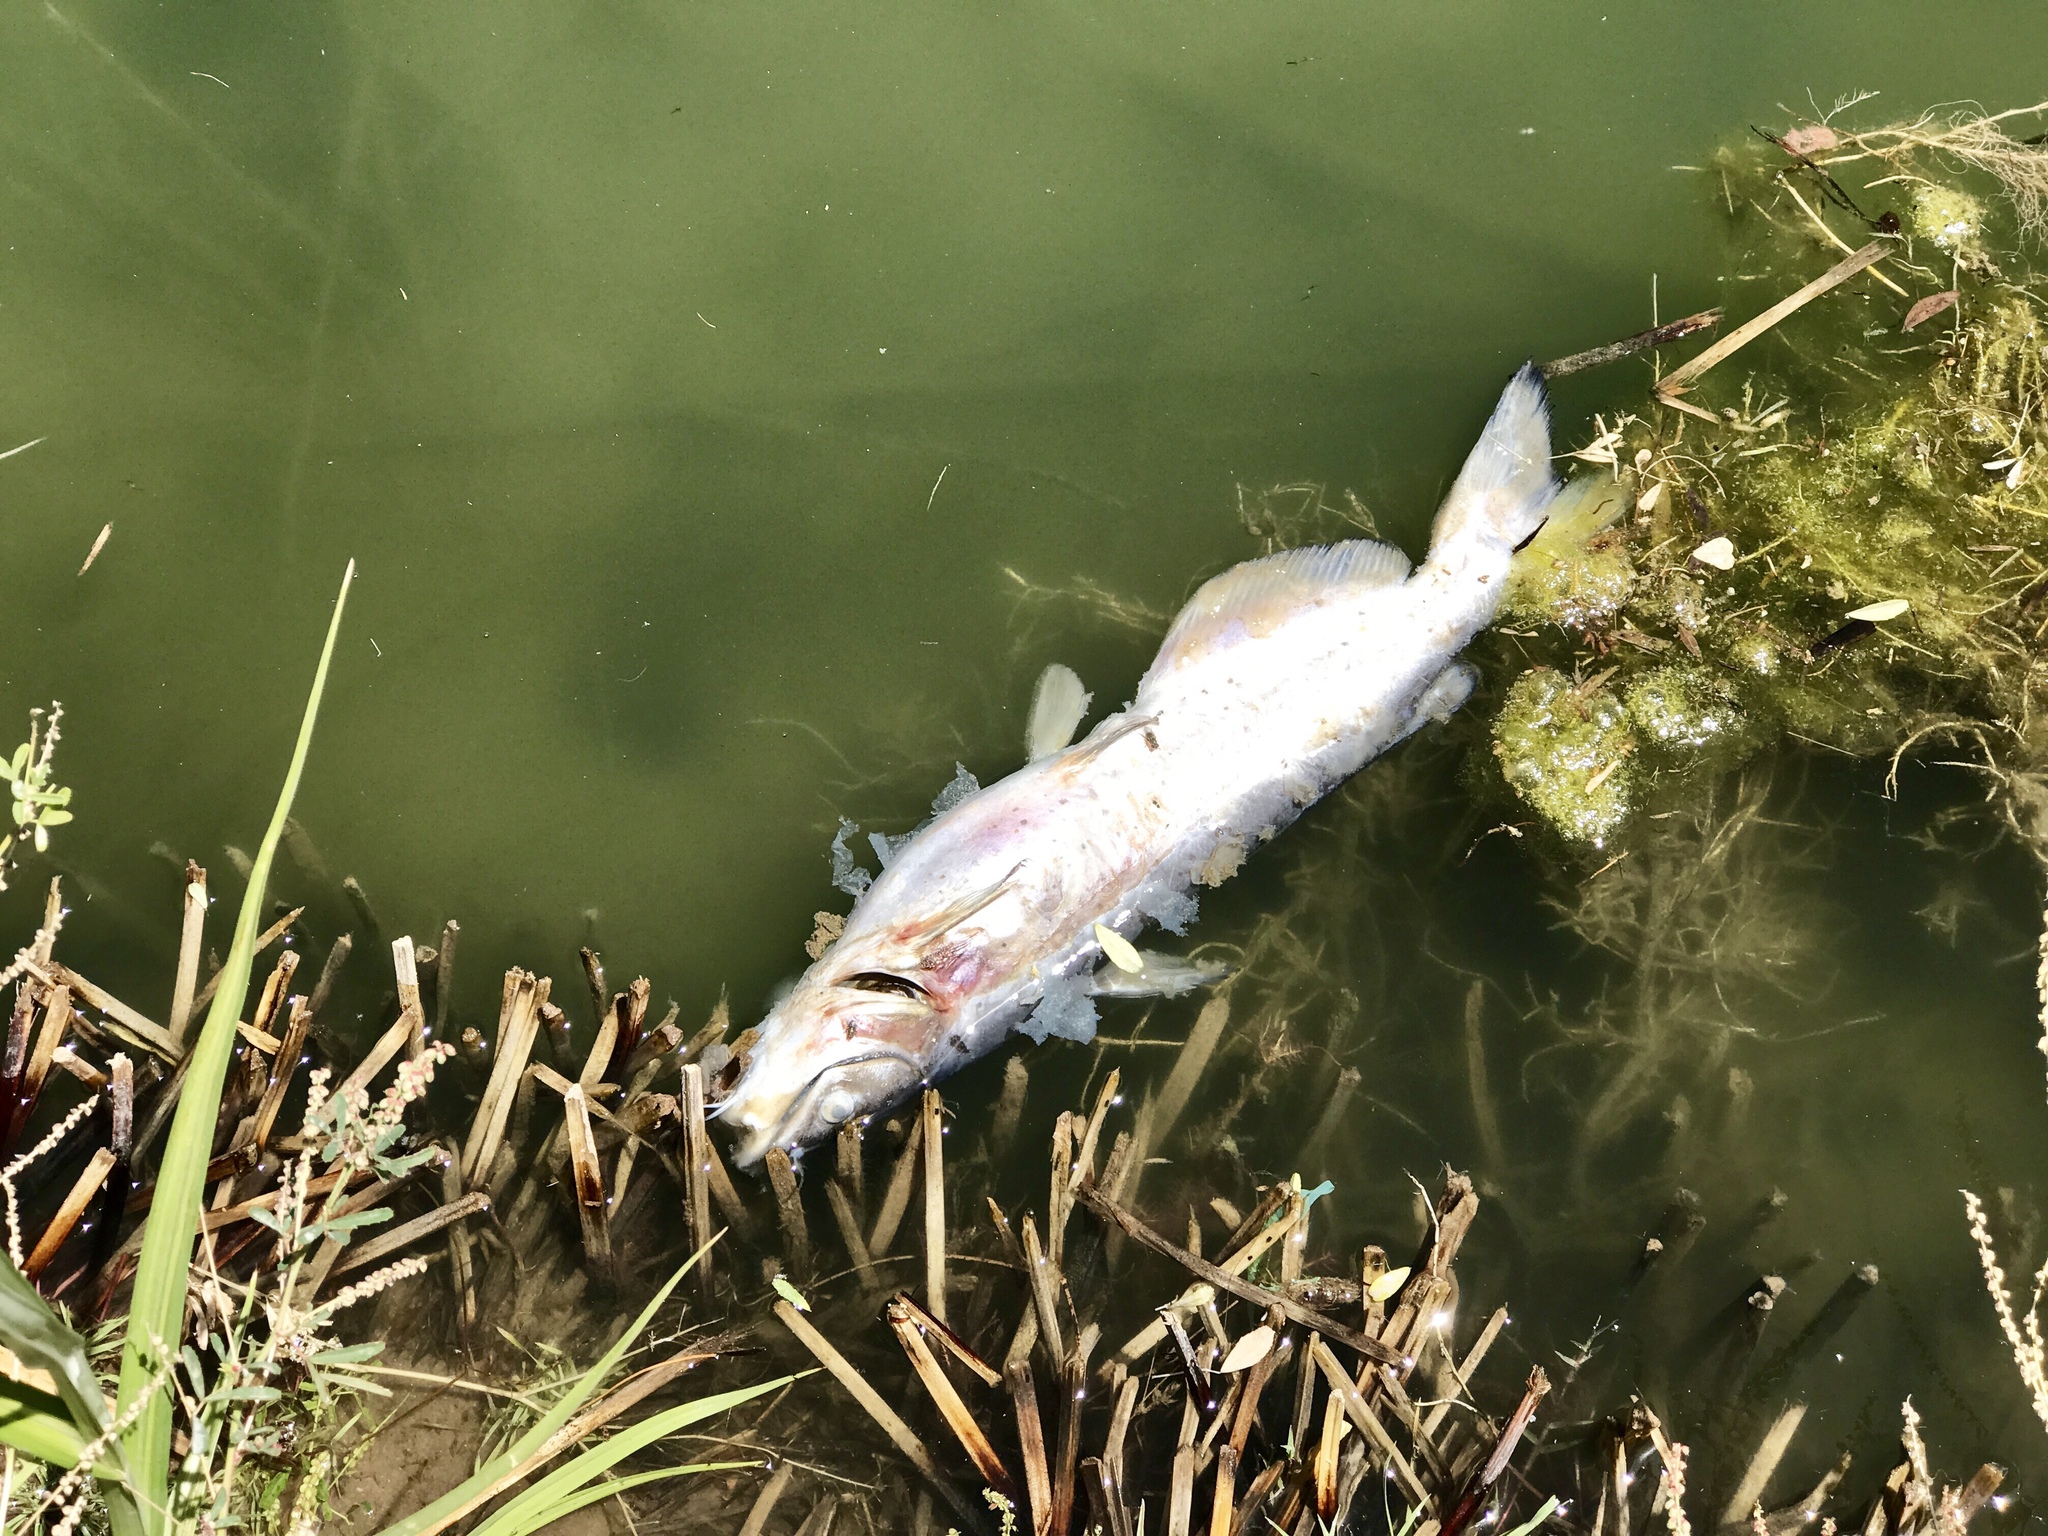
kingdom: Animalia
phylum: Chordata
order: Siluriformes
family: Ictaluridae
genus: Ictalurus
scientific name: Ictalurus punctatus
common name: Channel catfish
